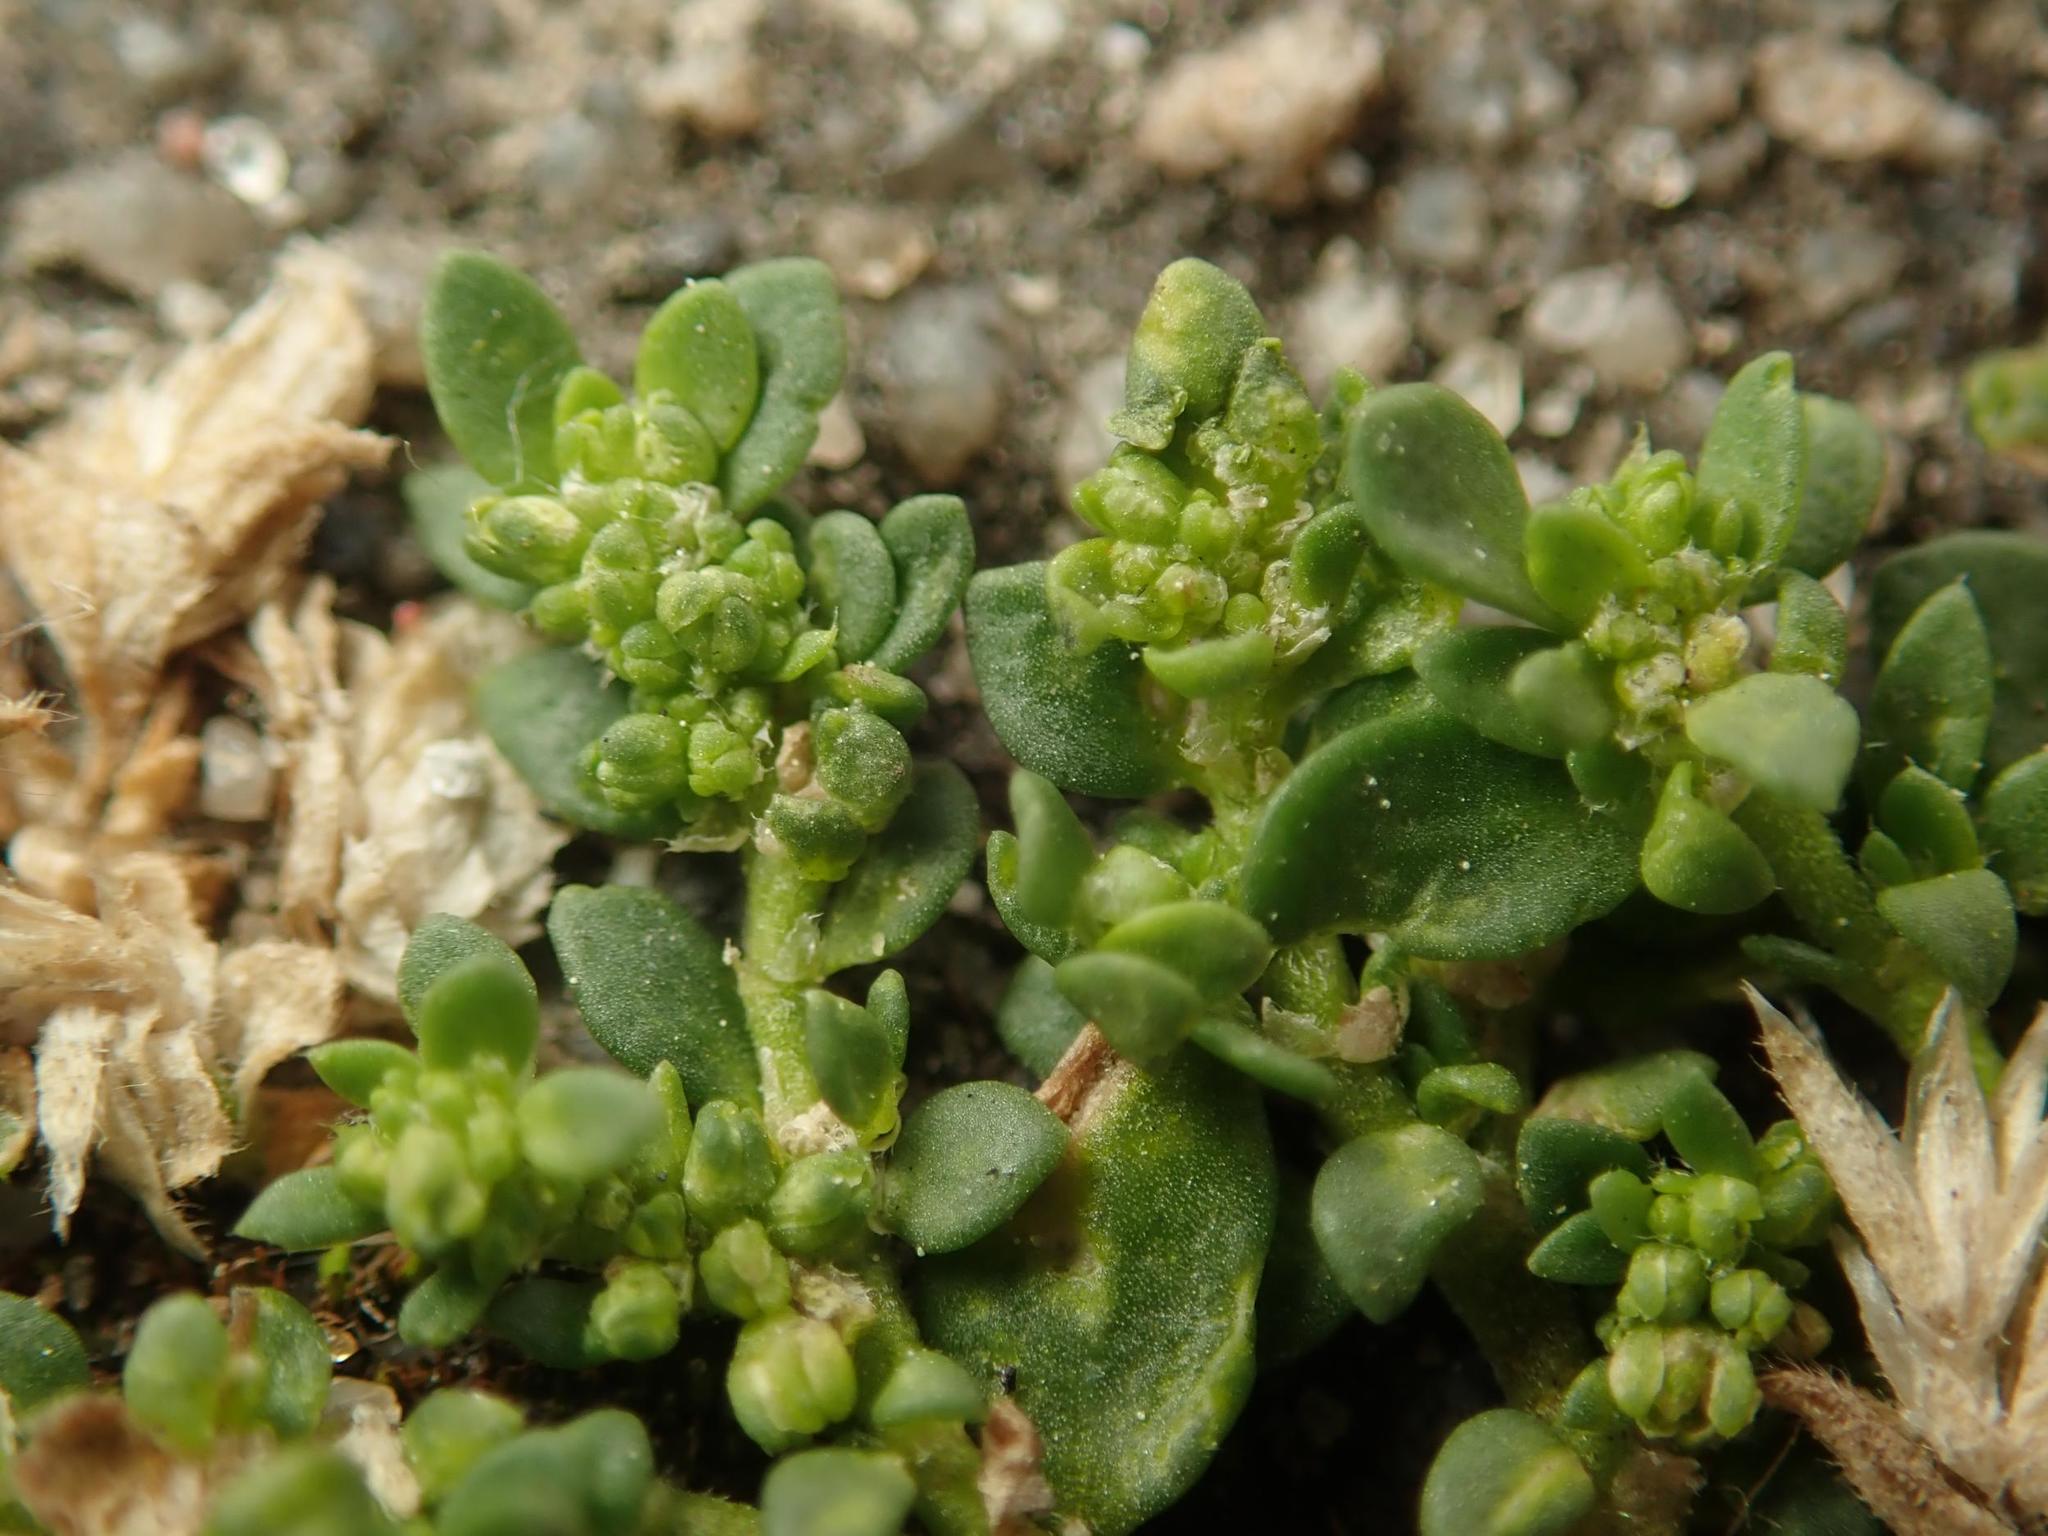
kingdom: Plantae
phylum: Tracheophyta
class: Magnoliopsida
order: Caryophyllales
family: Caryophyllaceae
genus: Herniaria
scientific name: Herniaria glabra
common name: Smooth rupturewort
